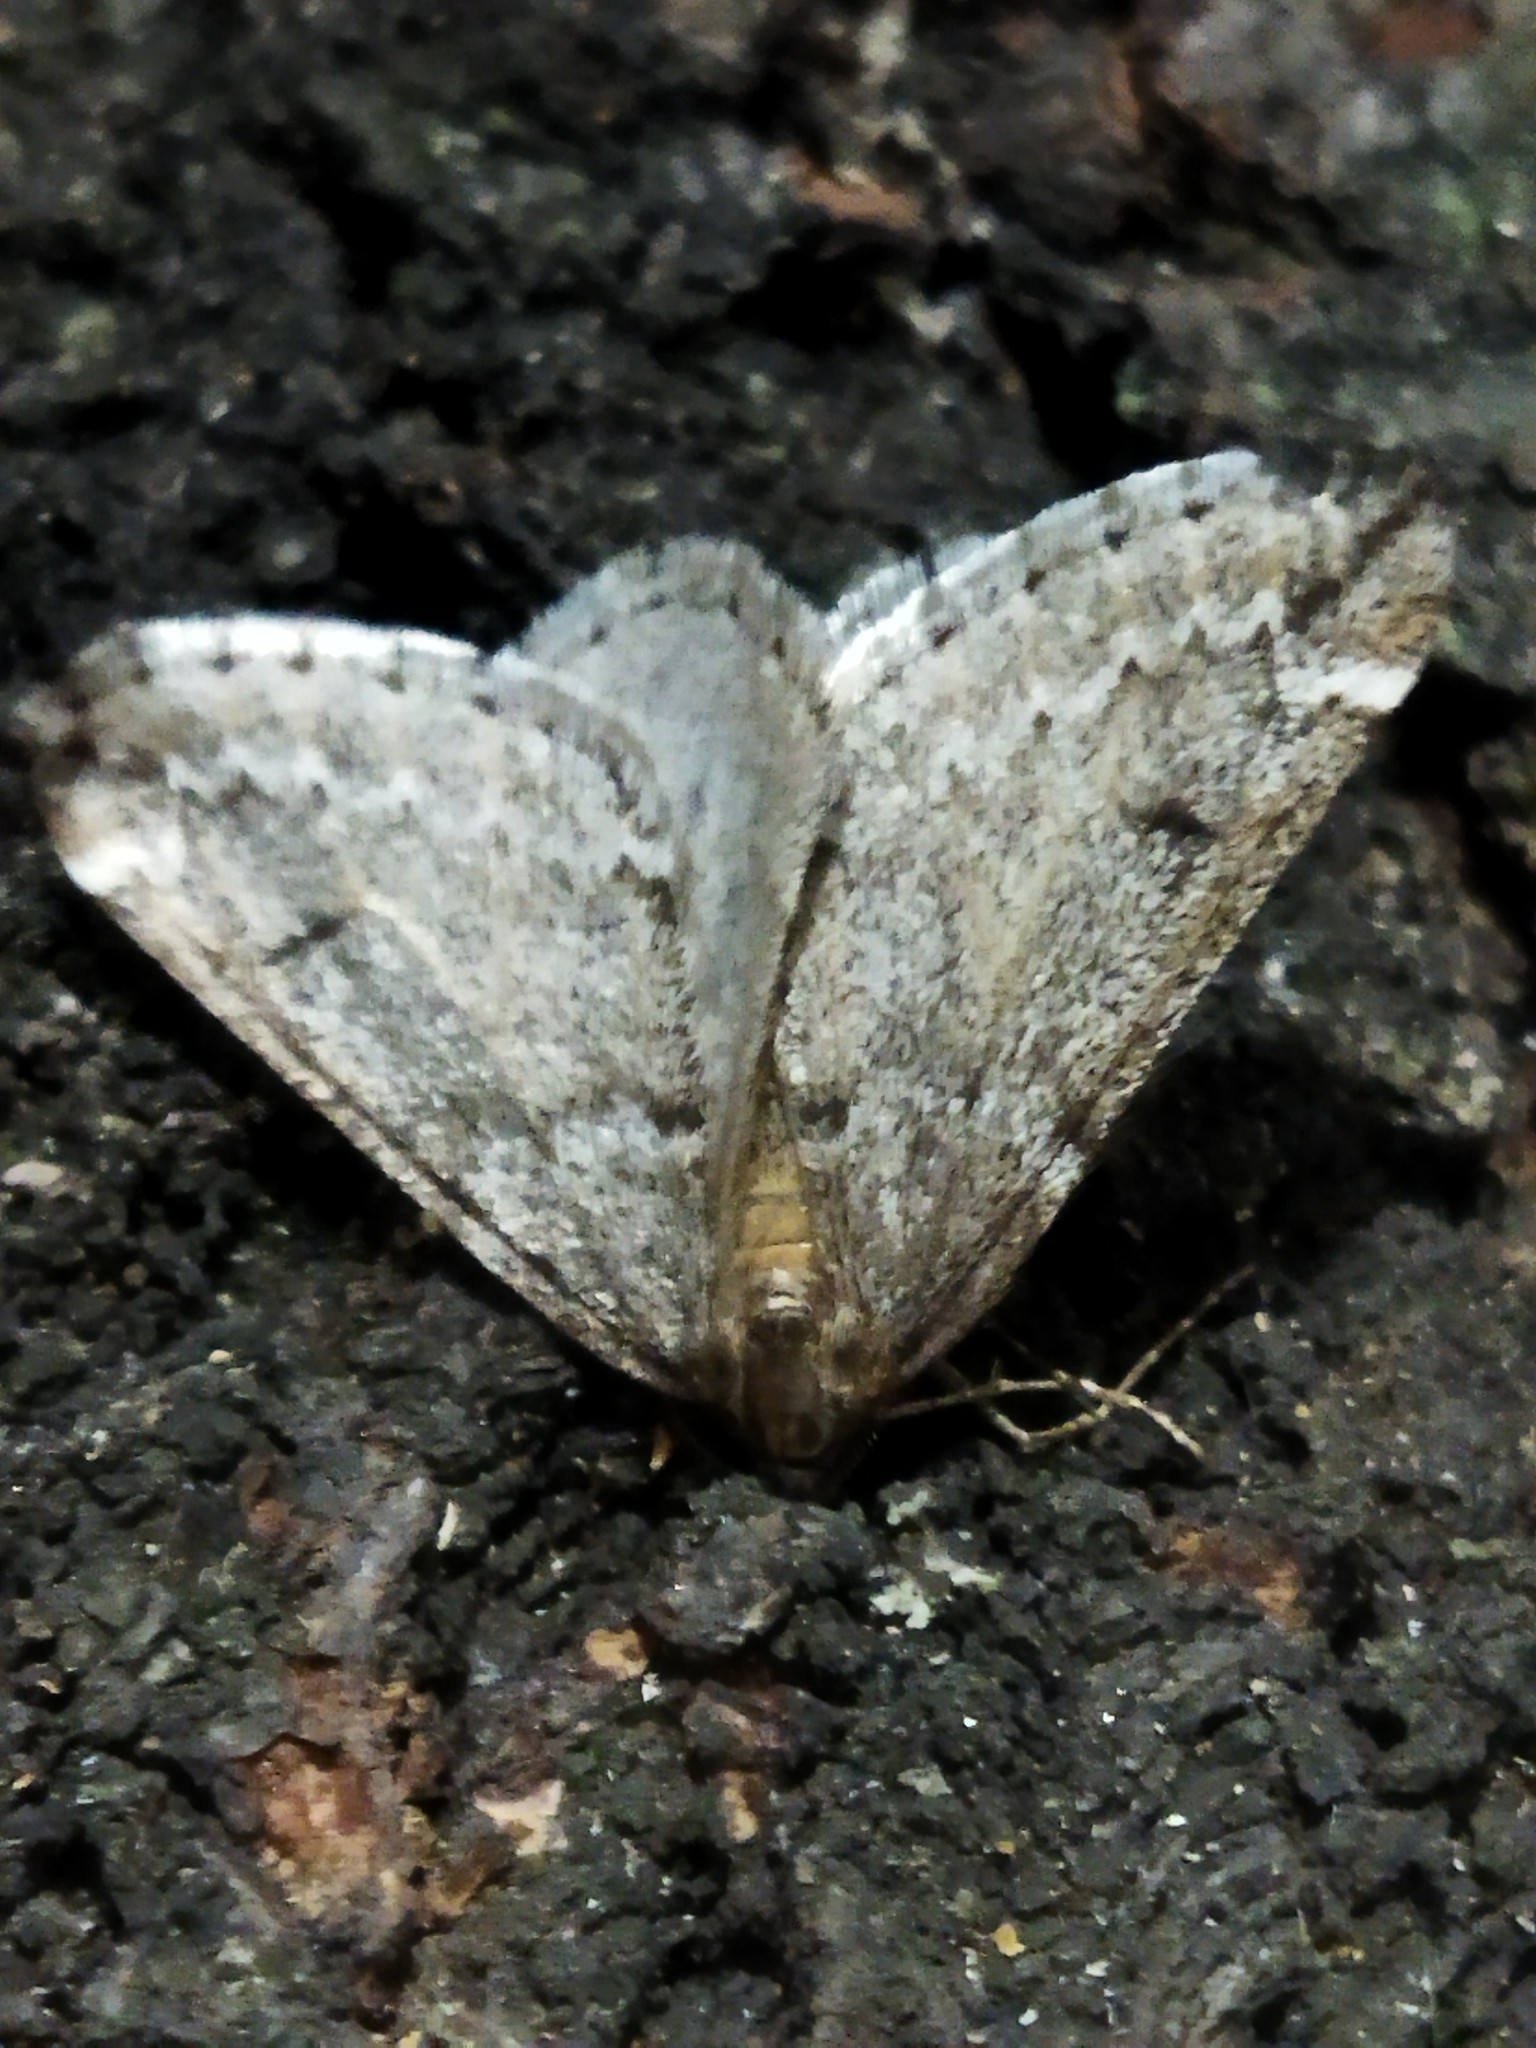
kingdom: Animalia
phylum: Arthropoda
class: Insecta
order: Lepidoptera
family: Geometridae
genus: Alsophila
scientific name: Alsophila aescularia
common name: March moth
